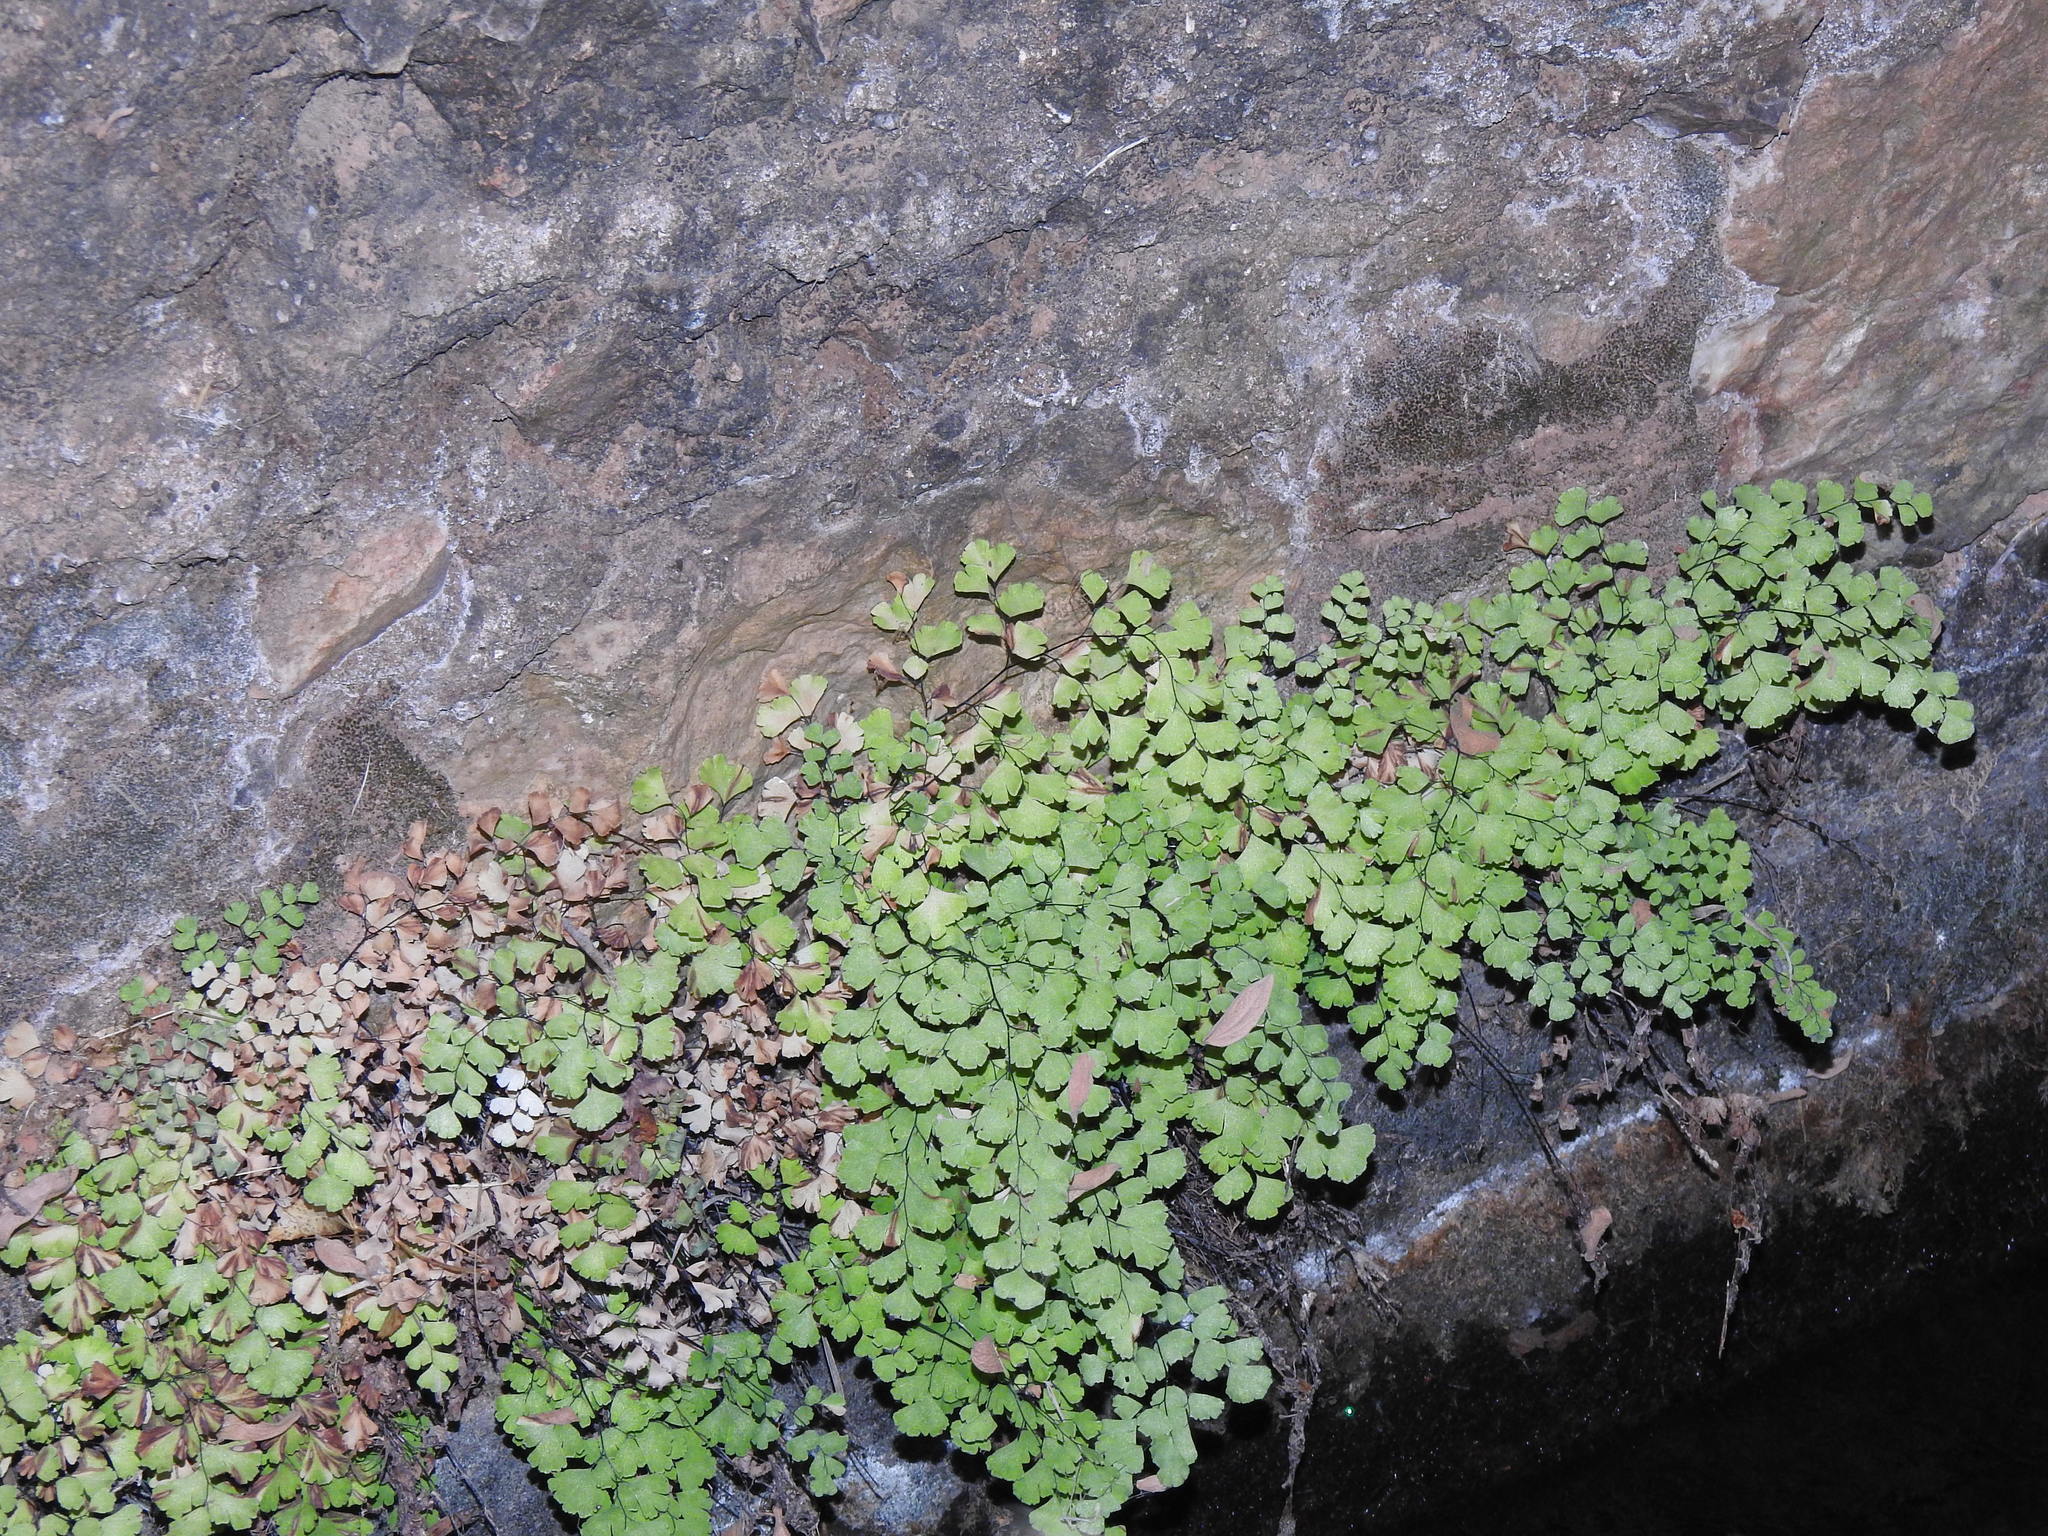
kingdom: Plantae
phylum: Tracheophyta
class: Polypodiopsida
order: Polypodiales
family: Pteridaceae
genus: Adiantum
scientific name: Adiantum capillus-veneris
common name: Maidenhair fern
